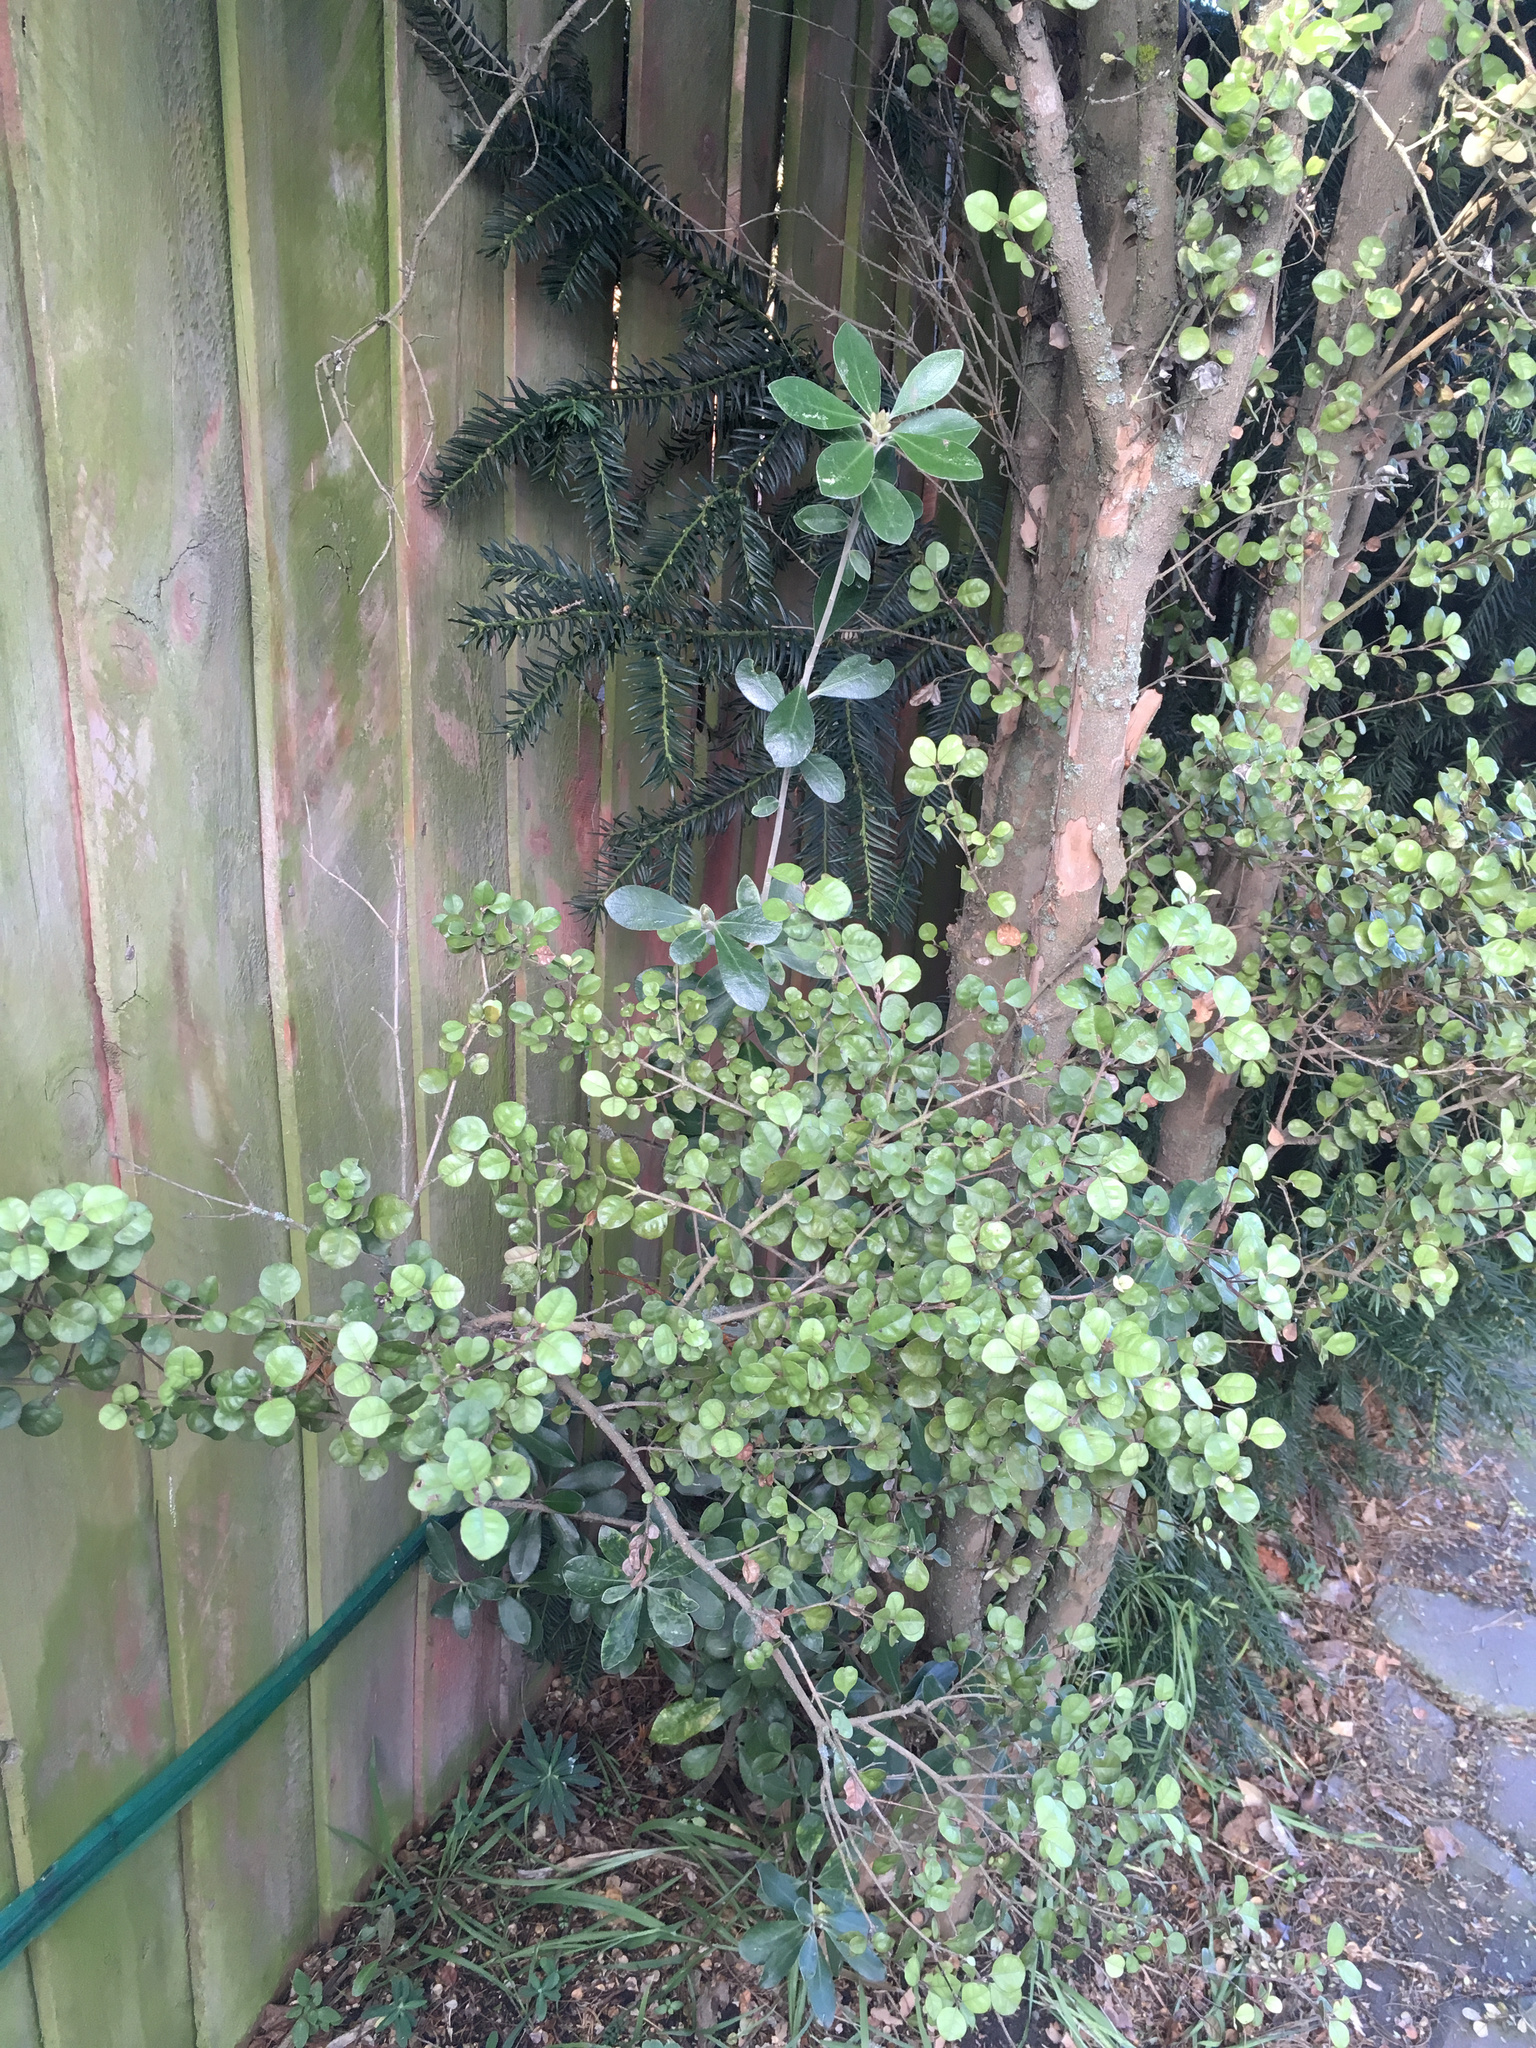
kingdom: Plantae
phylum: Tracheophyta
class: Magnoliopsida
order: Apiales
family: Pittosporaceae
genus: Pittosporum
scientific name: Pittosporum crassifolium
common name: Karo
